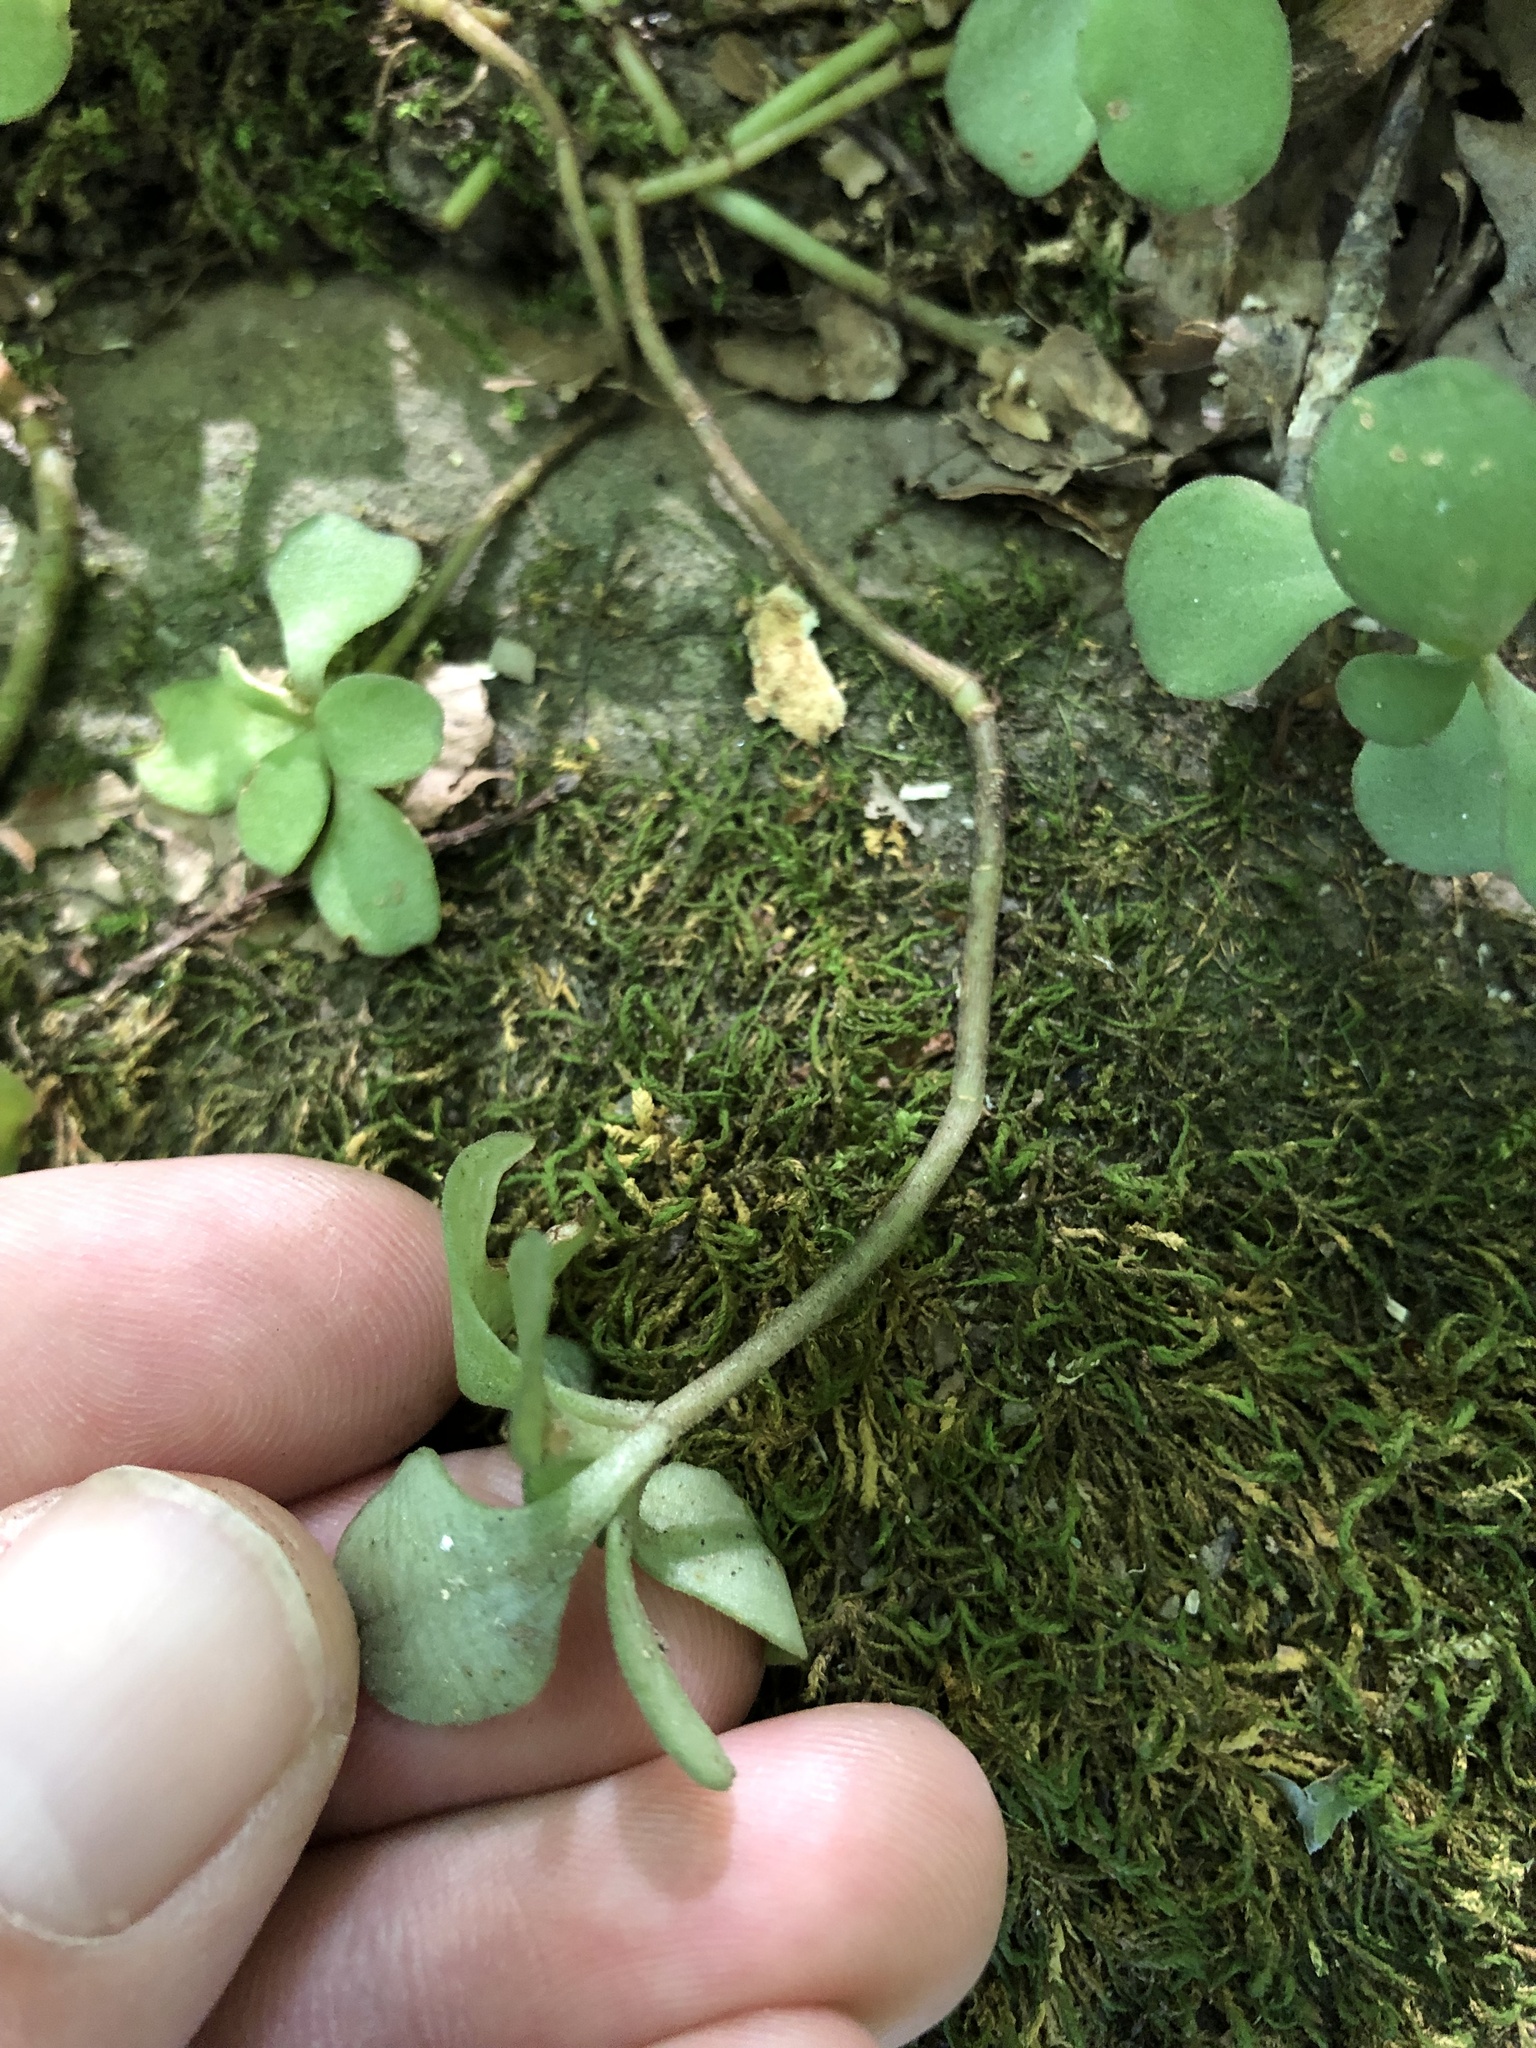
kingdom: Plantae
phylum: Tracheophyta
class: Magnoliopsida
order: Saxifragales
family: Crassulaceae
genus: Sedum
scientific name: Sedum ternatum
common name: Wild stonecrop
